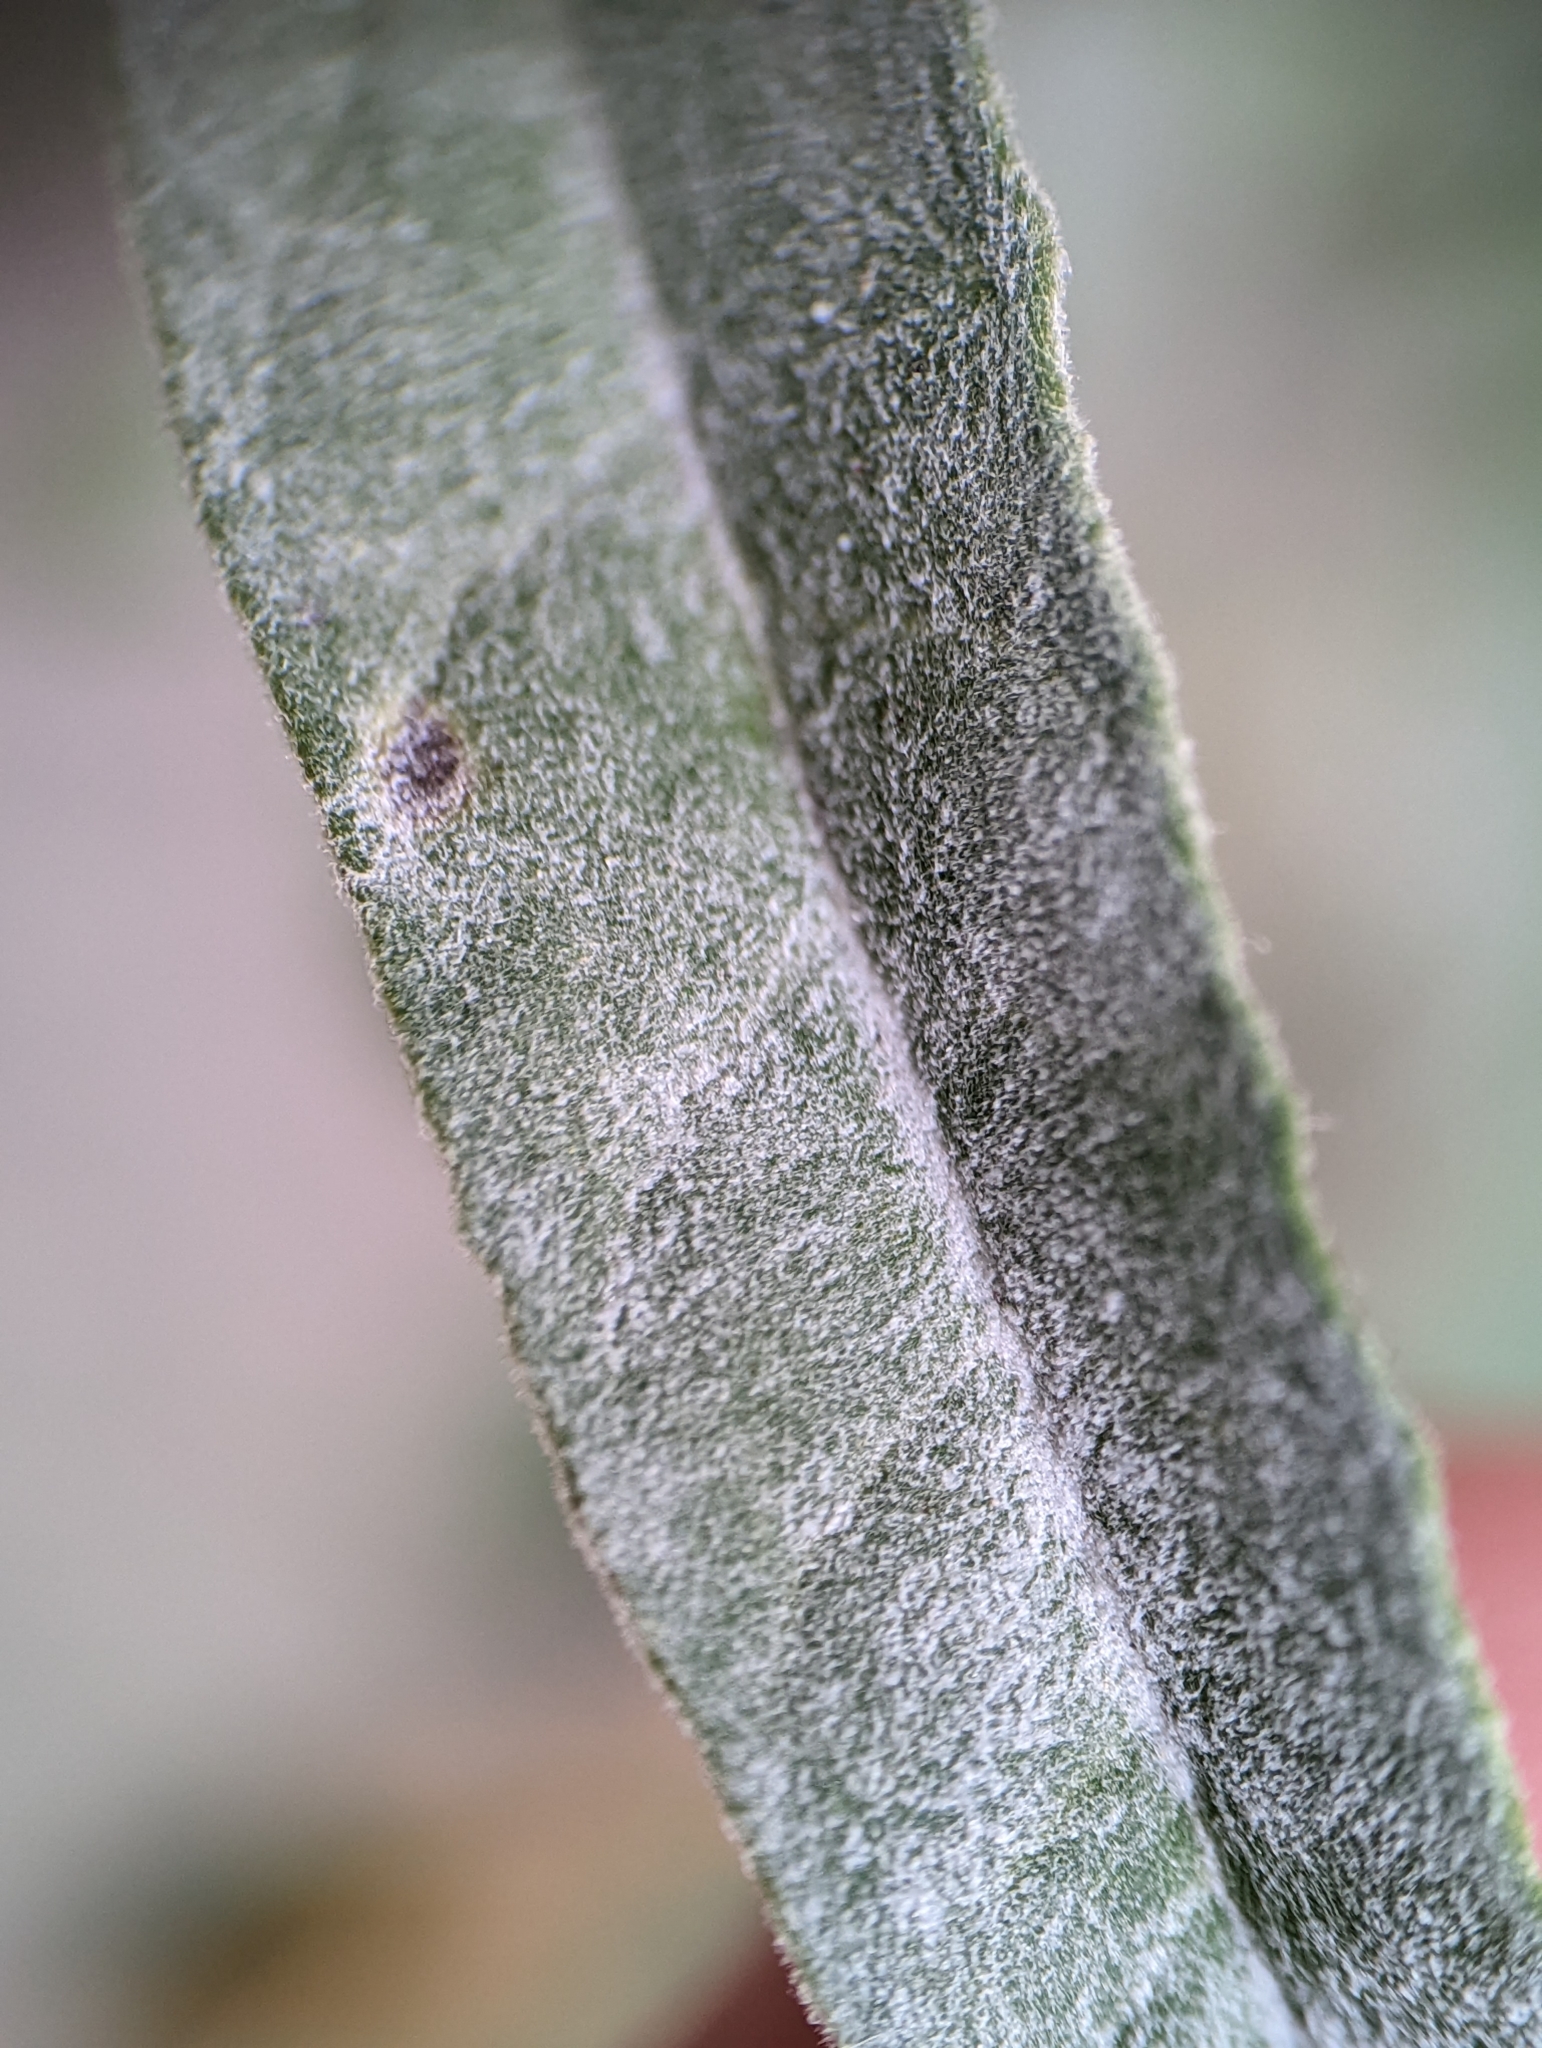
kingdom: Fungi
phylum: Ascomycota
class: Leotiomycetes
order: Helotiales
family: Erysiphaceae
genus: Erysiphe
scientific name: Erysiphe convolvuli
